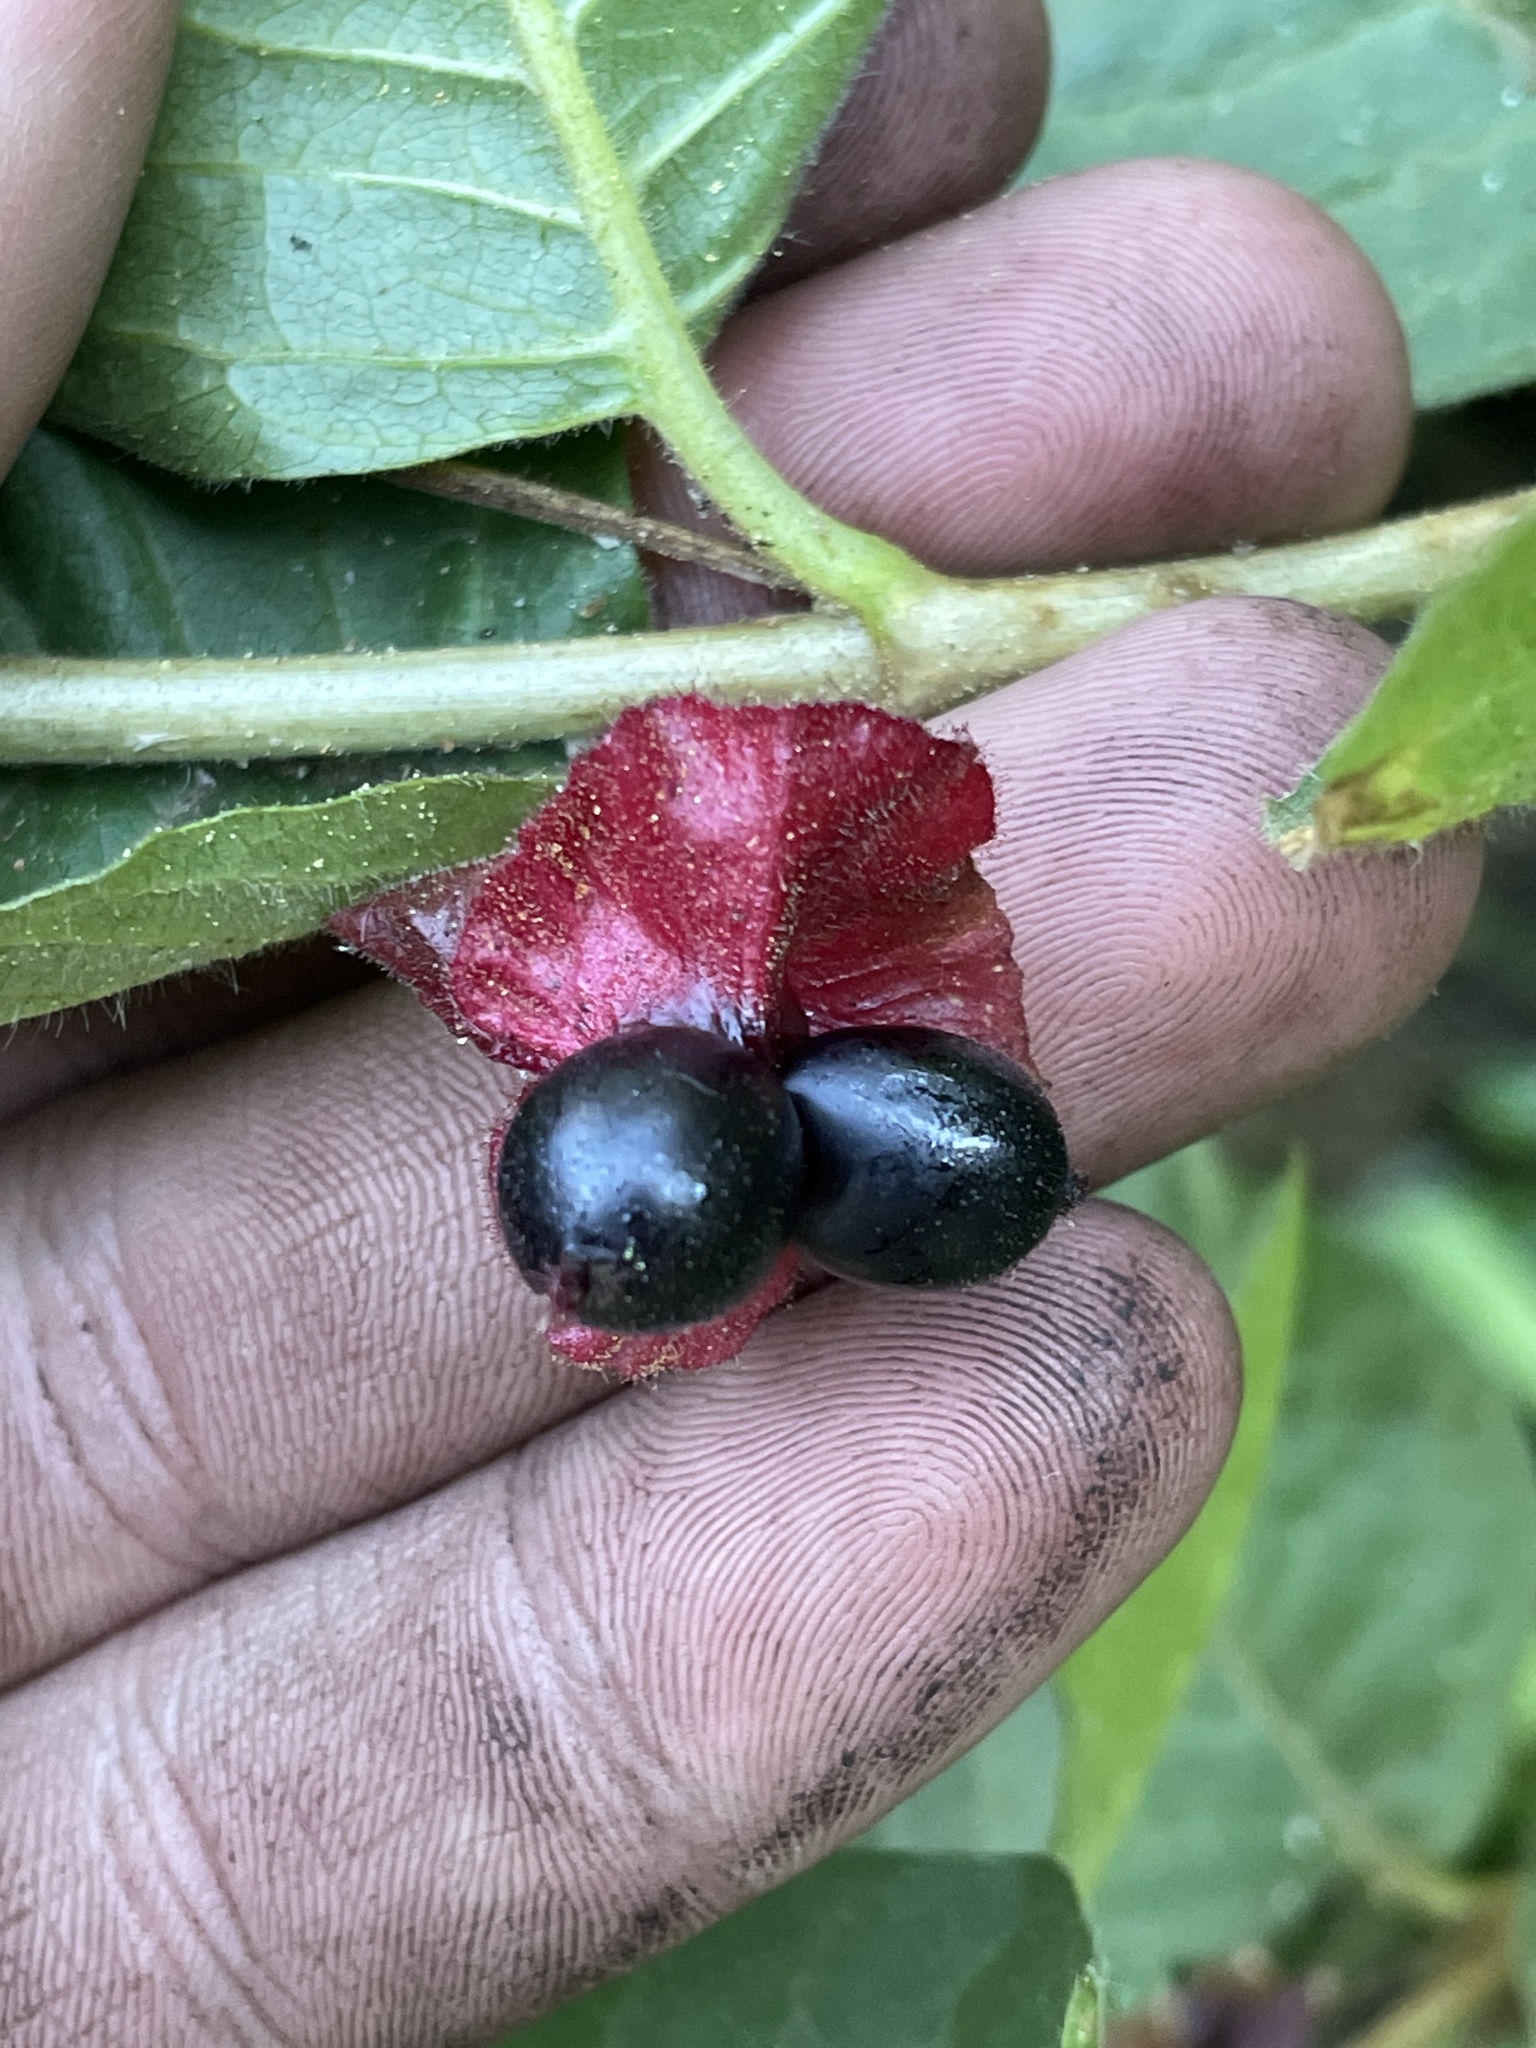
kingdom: Plantae
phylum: Tracheophyta
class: Magnoliopsida
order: Dipsacales
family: Caprifoliaceae
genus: Lonicera
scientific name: Lonicera involucrata
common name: Californian honeysuckle
